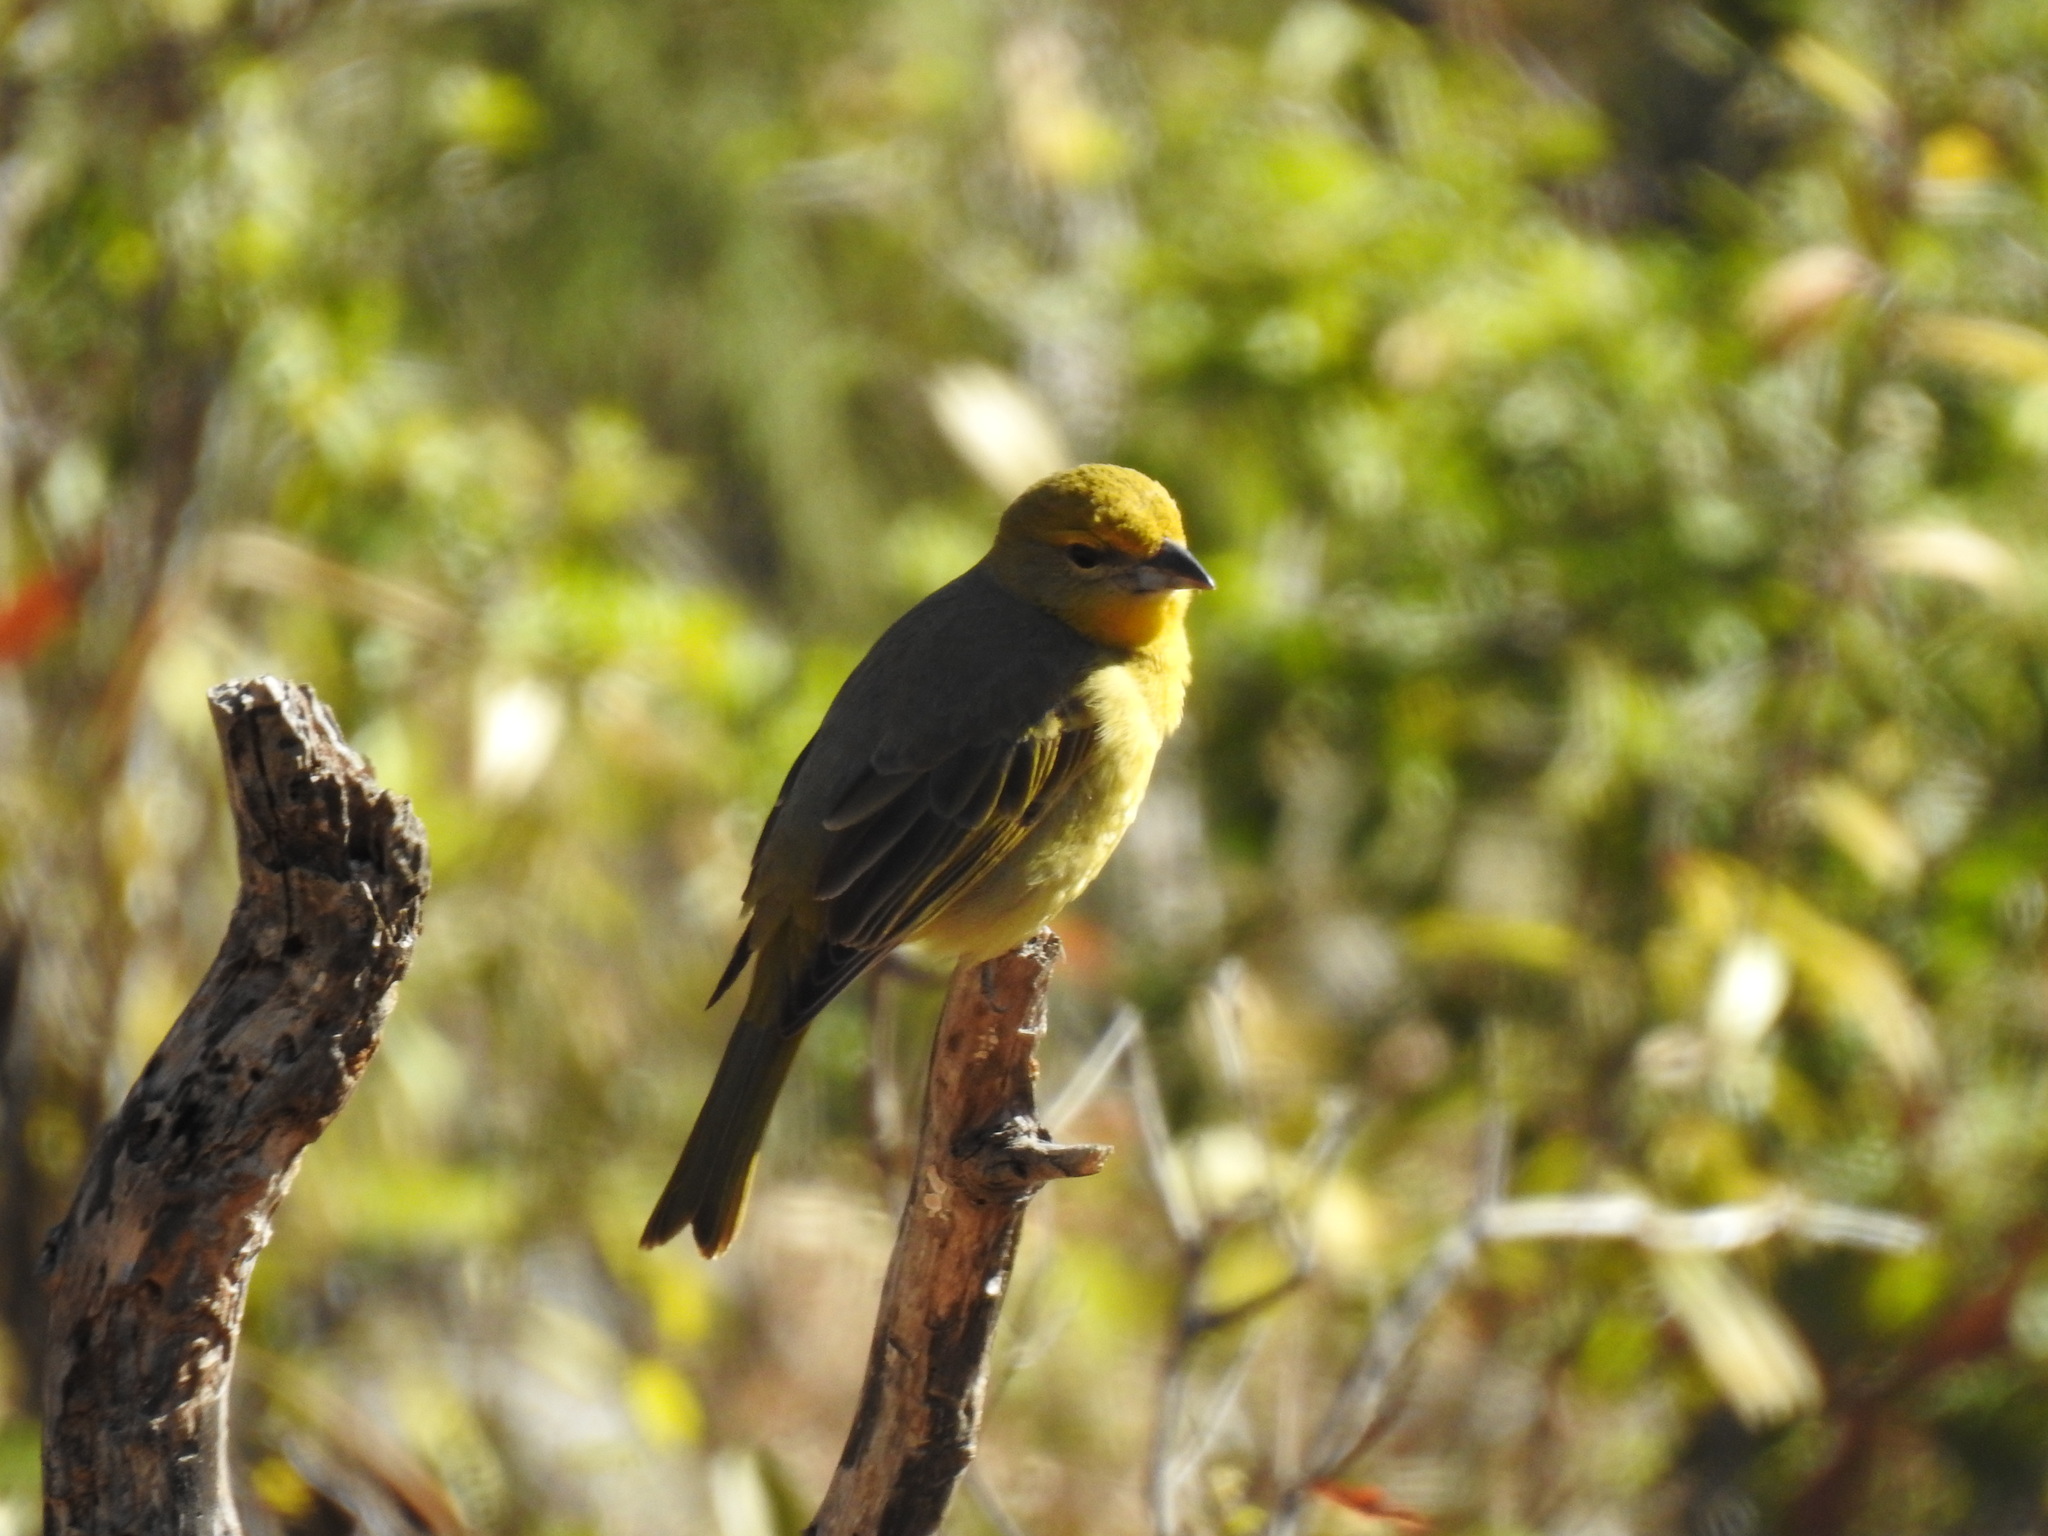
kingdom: Animalia
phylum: Chordata
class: Aves
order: Passeriformes
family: Cardinalidae
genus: Piranga
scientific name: Piranga flava
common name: Red tanager
